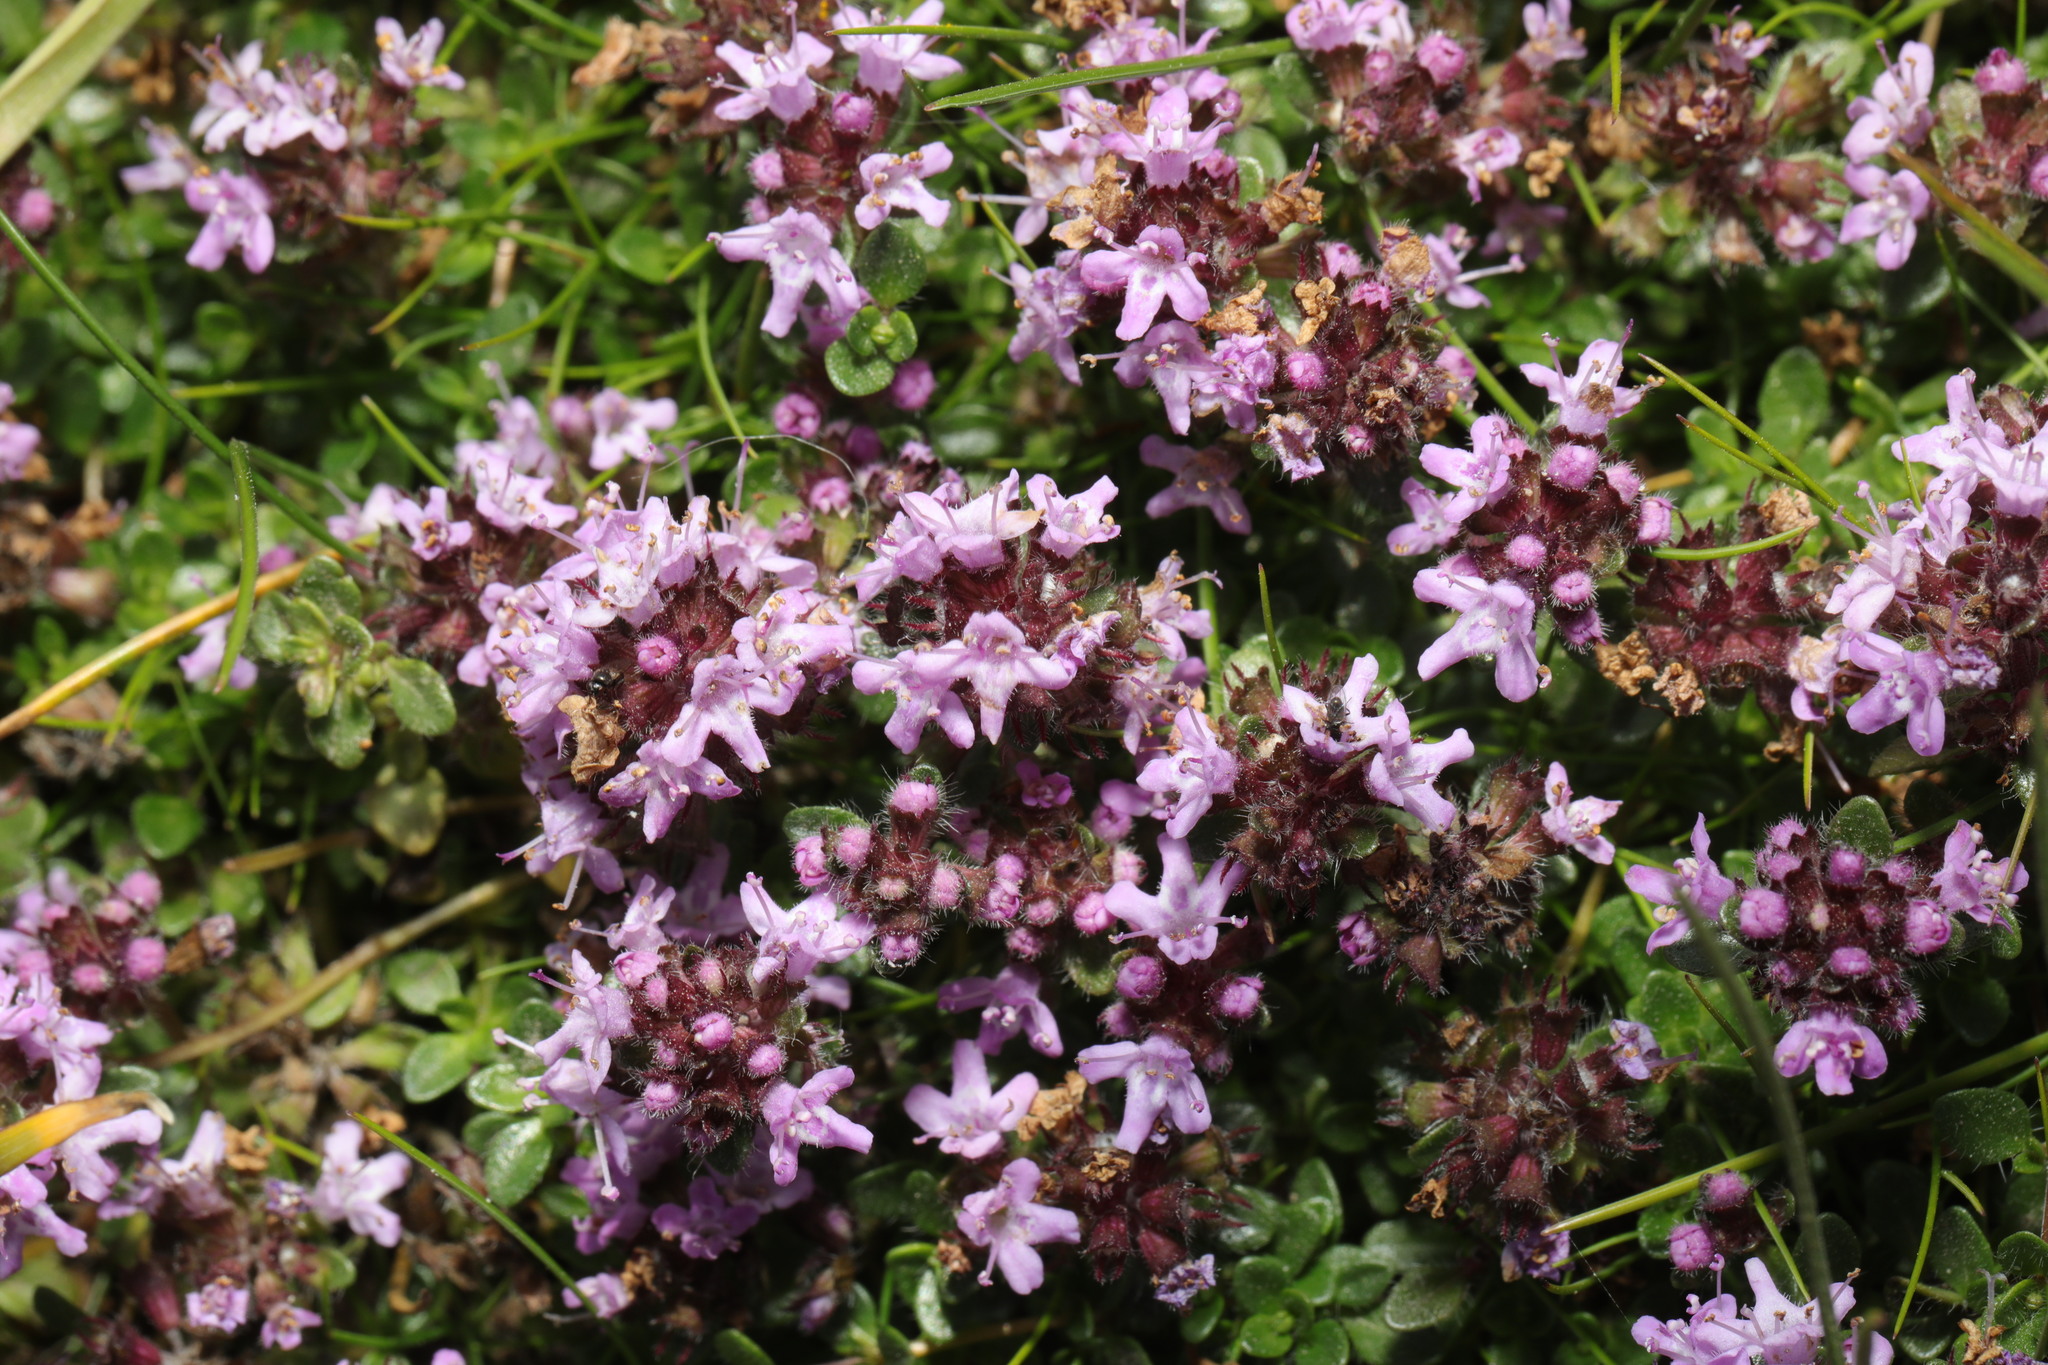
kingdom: Plantae
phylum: Tracheophyta
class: Magnoliopsida
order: Lamiales
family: Lamiaceae
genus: Thymus
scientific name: Thymus praecox
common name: Wild thyme
